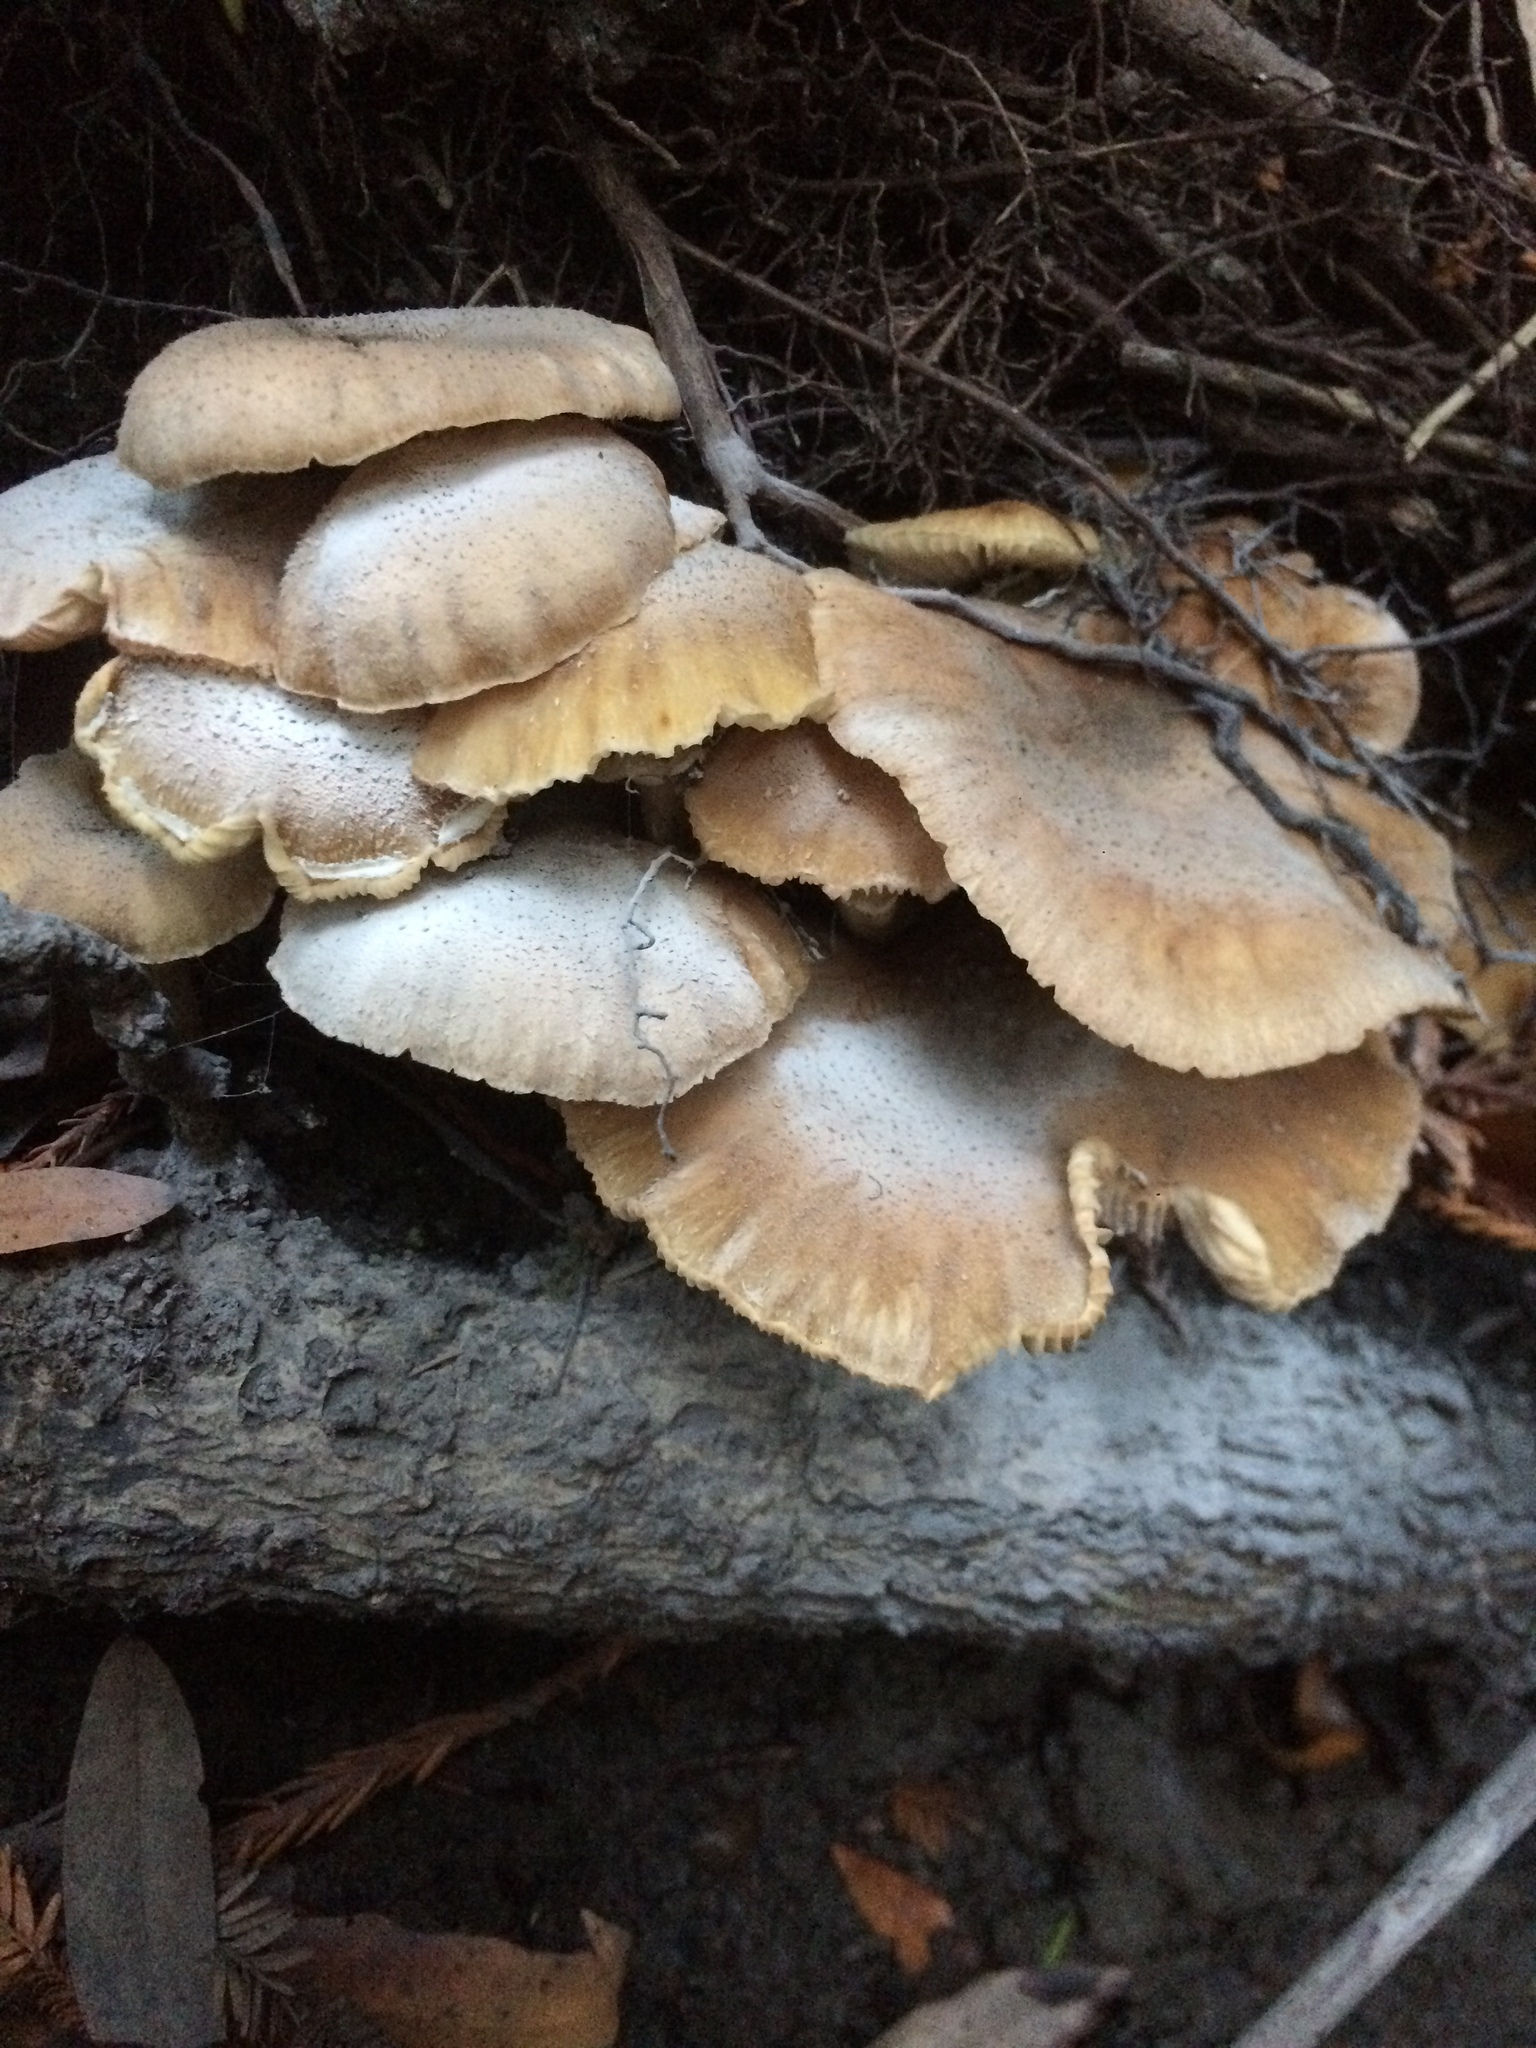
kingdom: Fungi
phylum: Basidiomycota
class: Agaricomycetes
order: Agaricales
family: Physalacriaceae
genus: Armillaria
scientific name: Armillaria mellea
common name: Honey fungus
